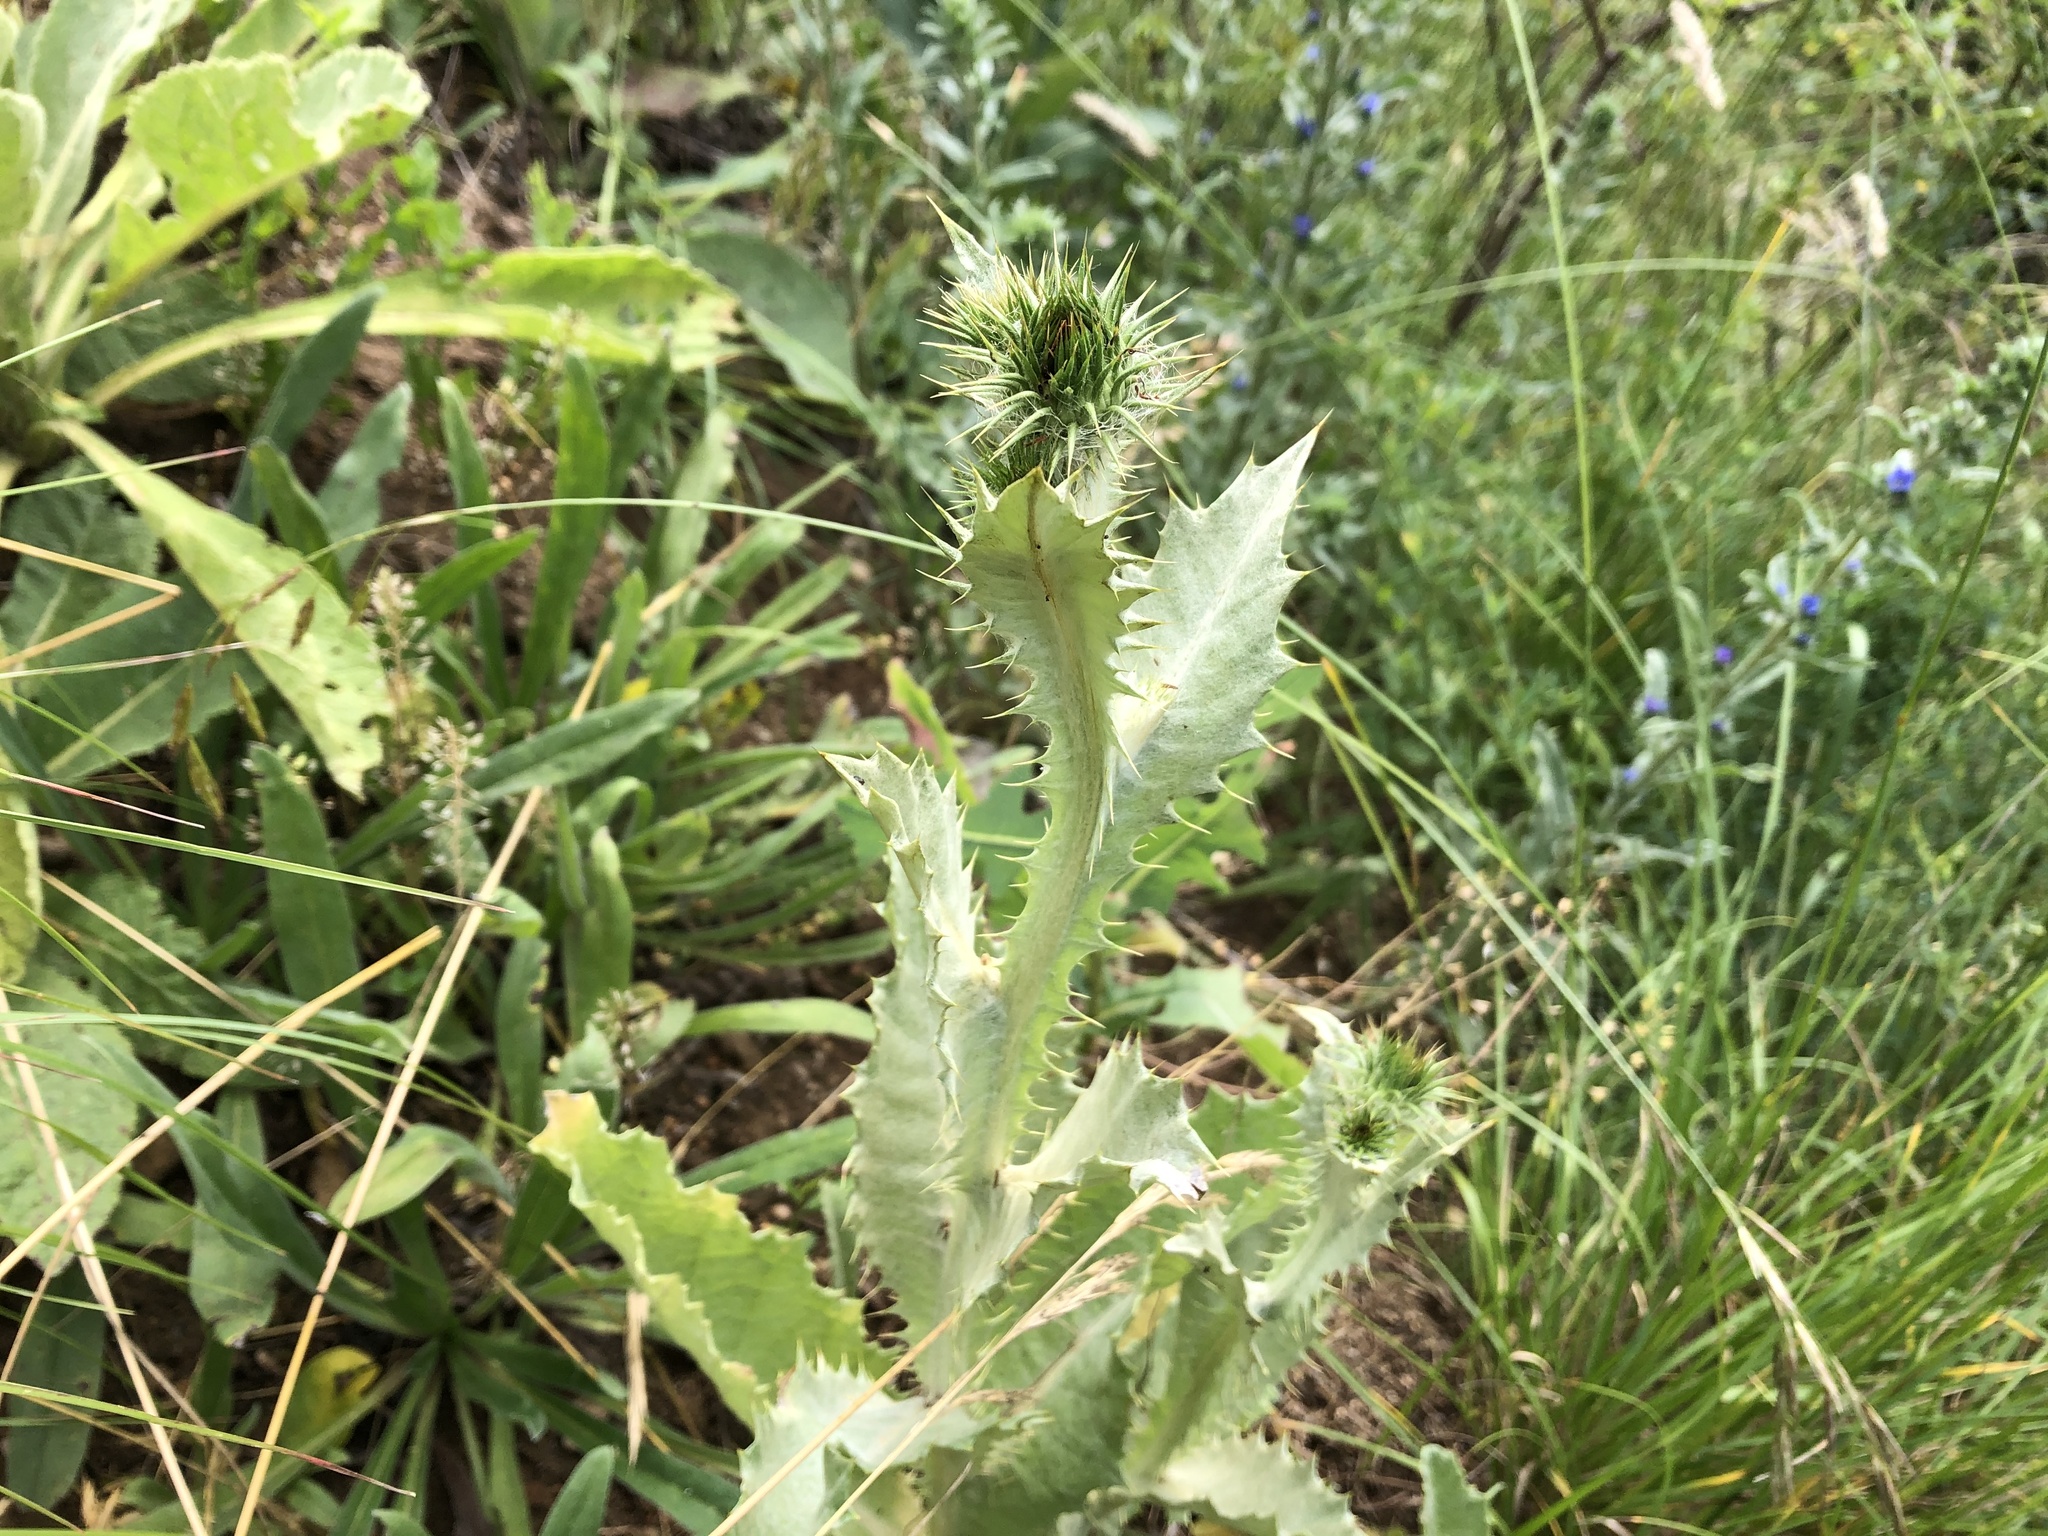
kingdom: Plantae
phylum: Tracheophyta
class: Magnoliopsida
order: Asterales
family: Asteraceae
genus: Onopordum
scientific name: Onopordum acanthium
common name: Scotch thistle
